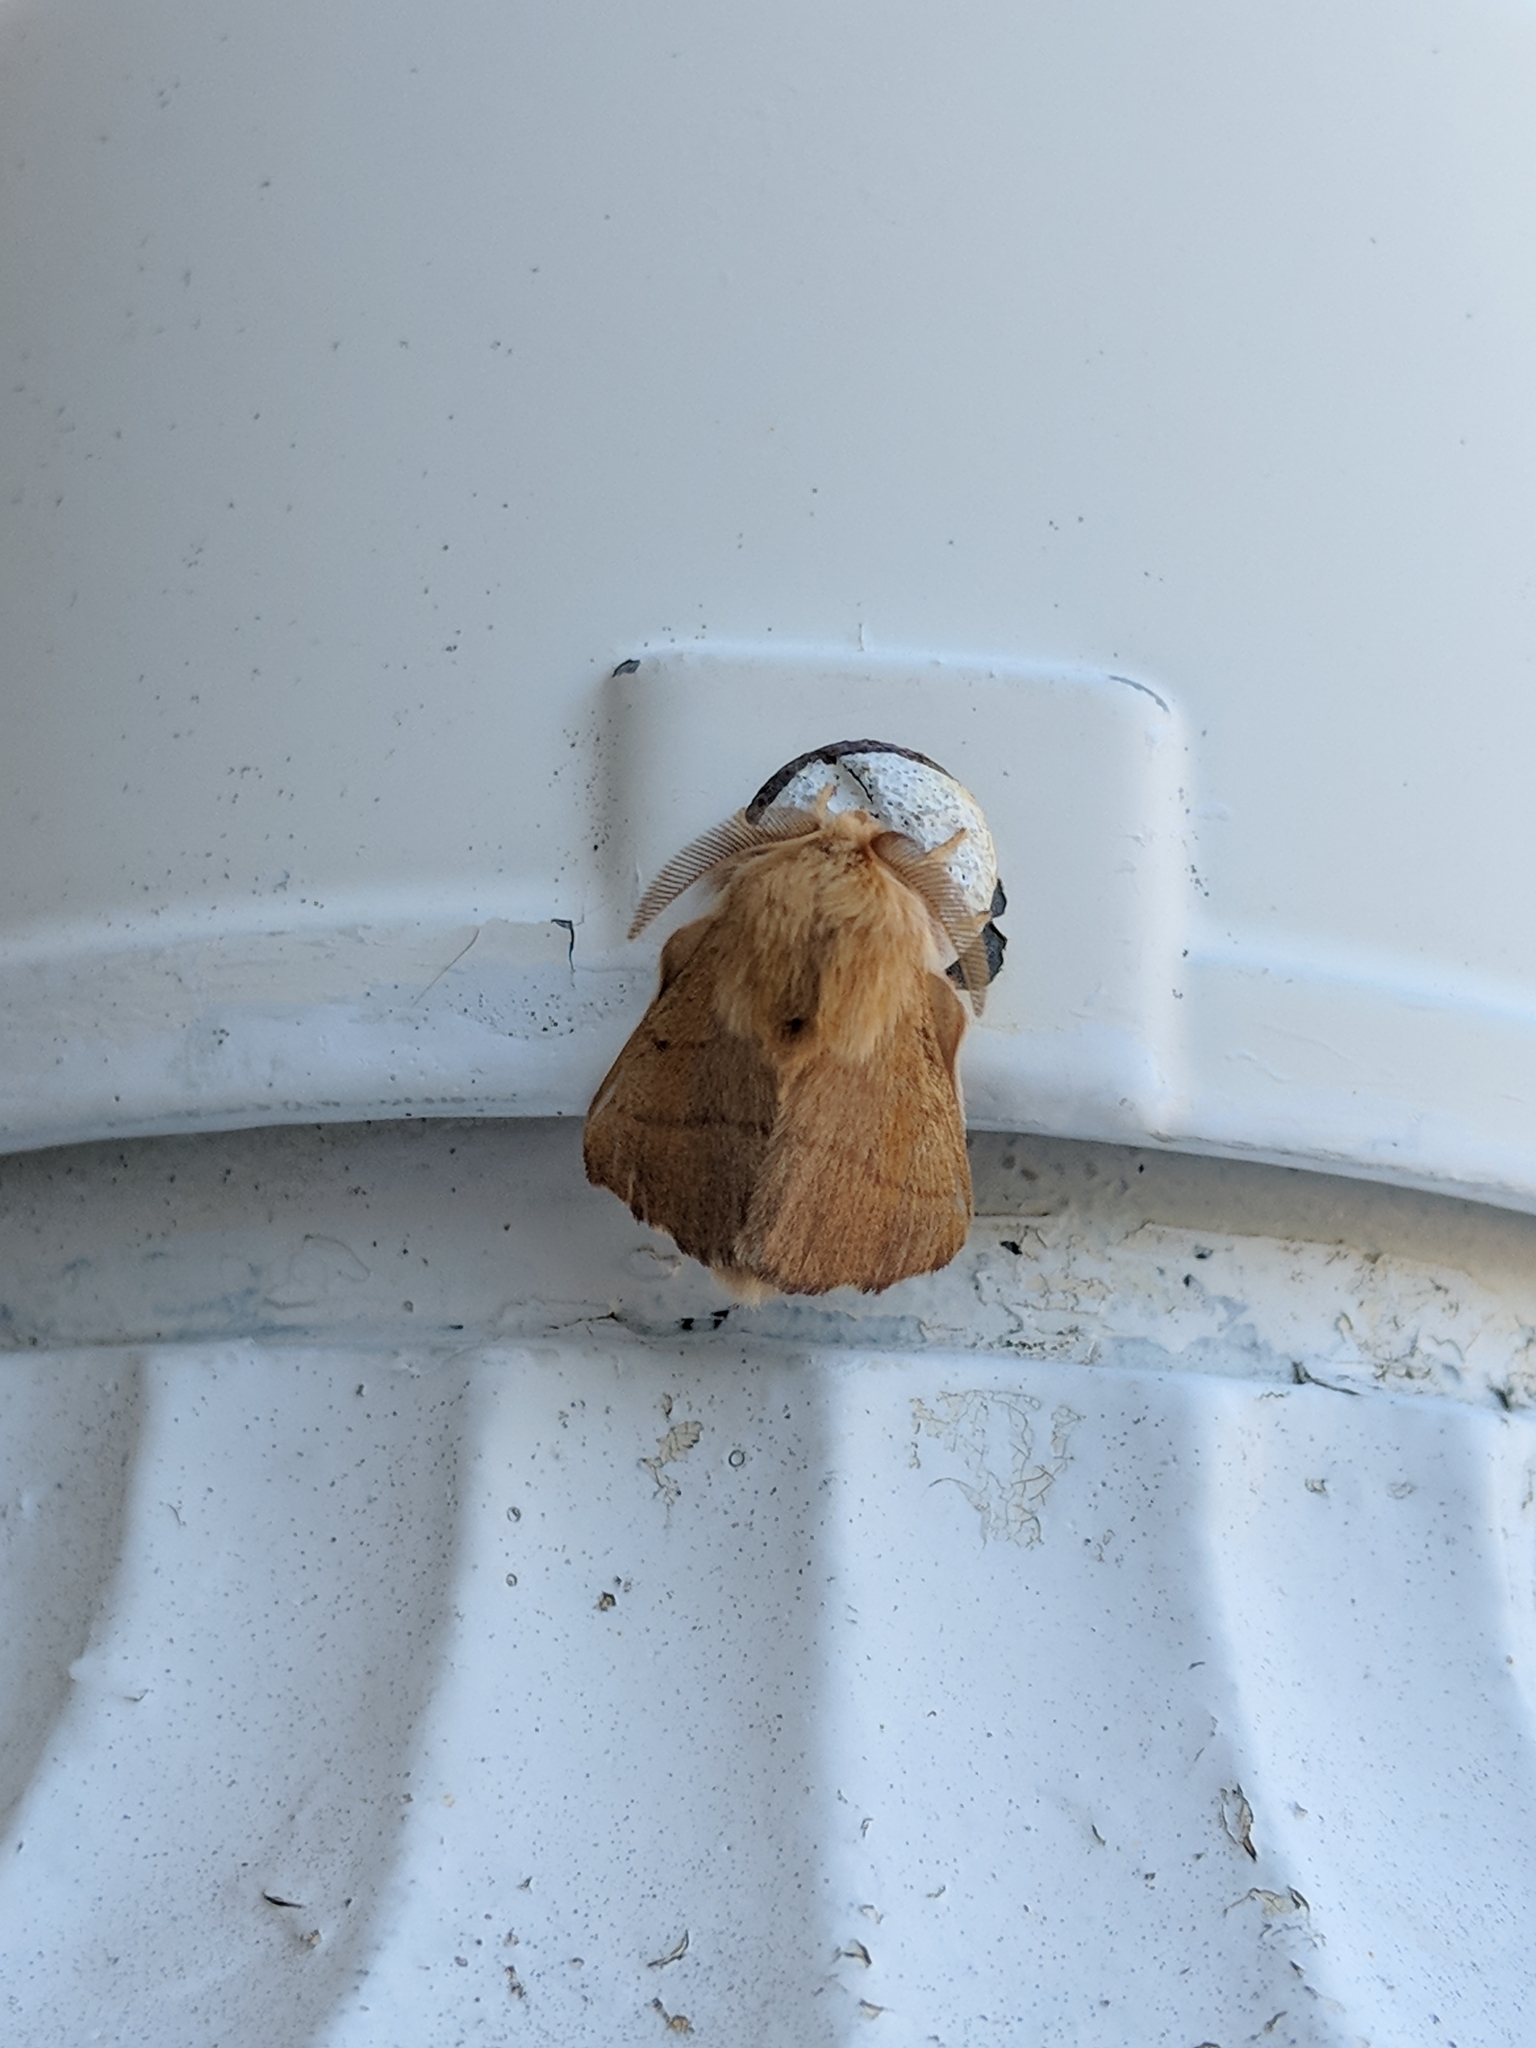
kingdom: Animalia
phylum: Arthropoda
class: Insecta
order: Lepidoptera
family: Lasiocampidae
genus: Malacosoma
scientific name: Malacosoma disstria
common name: Forest tent caterpillar
